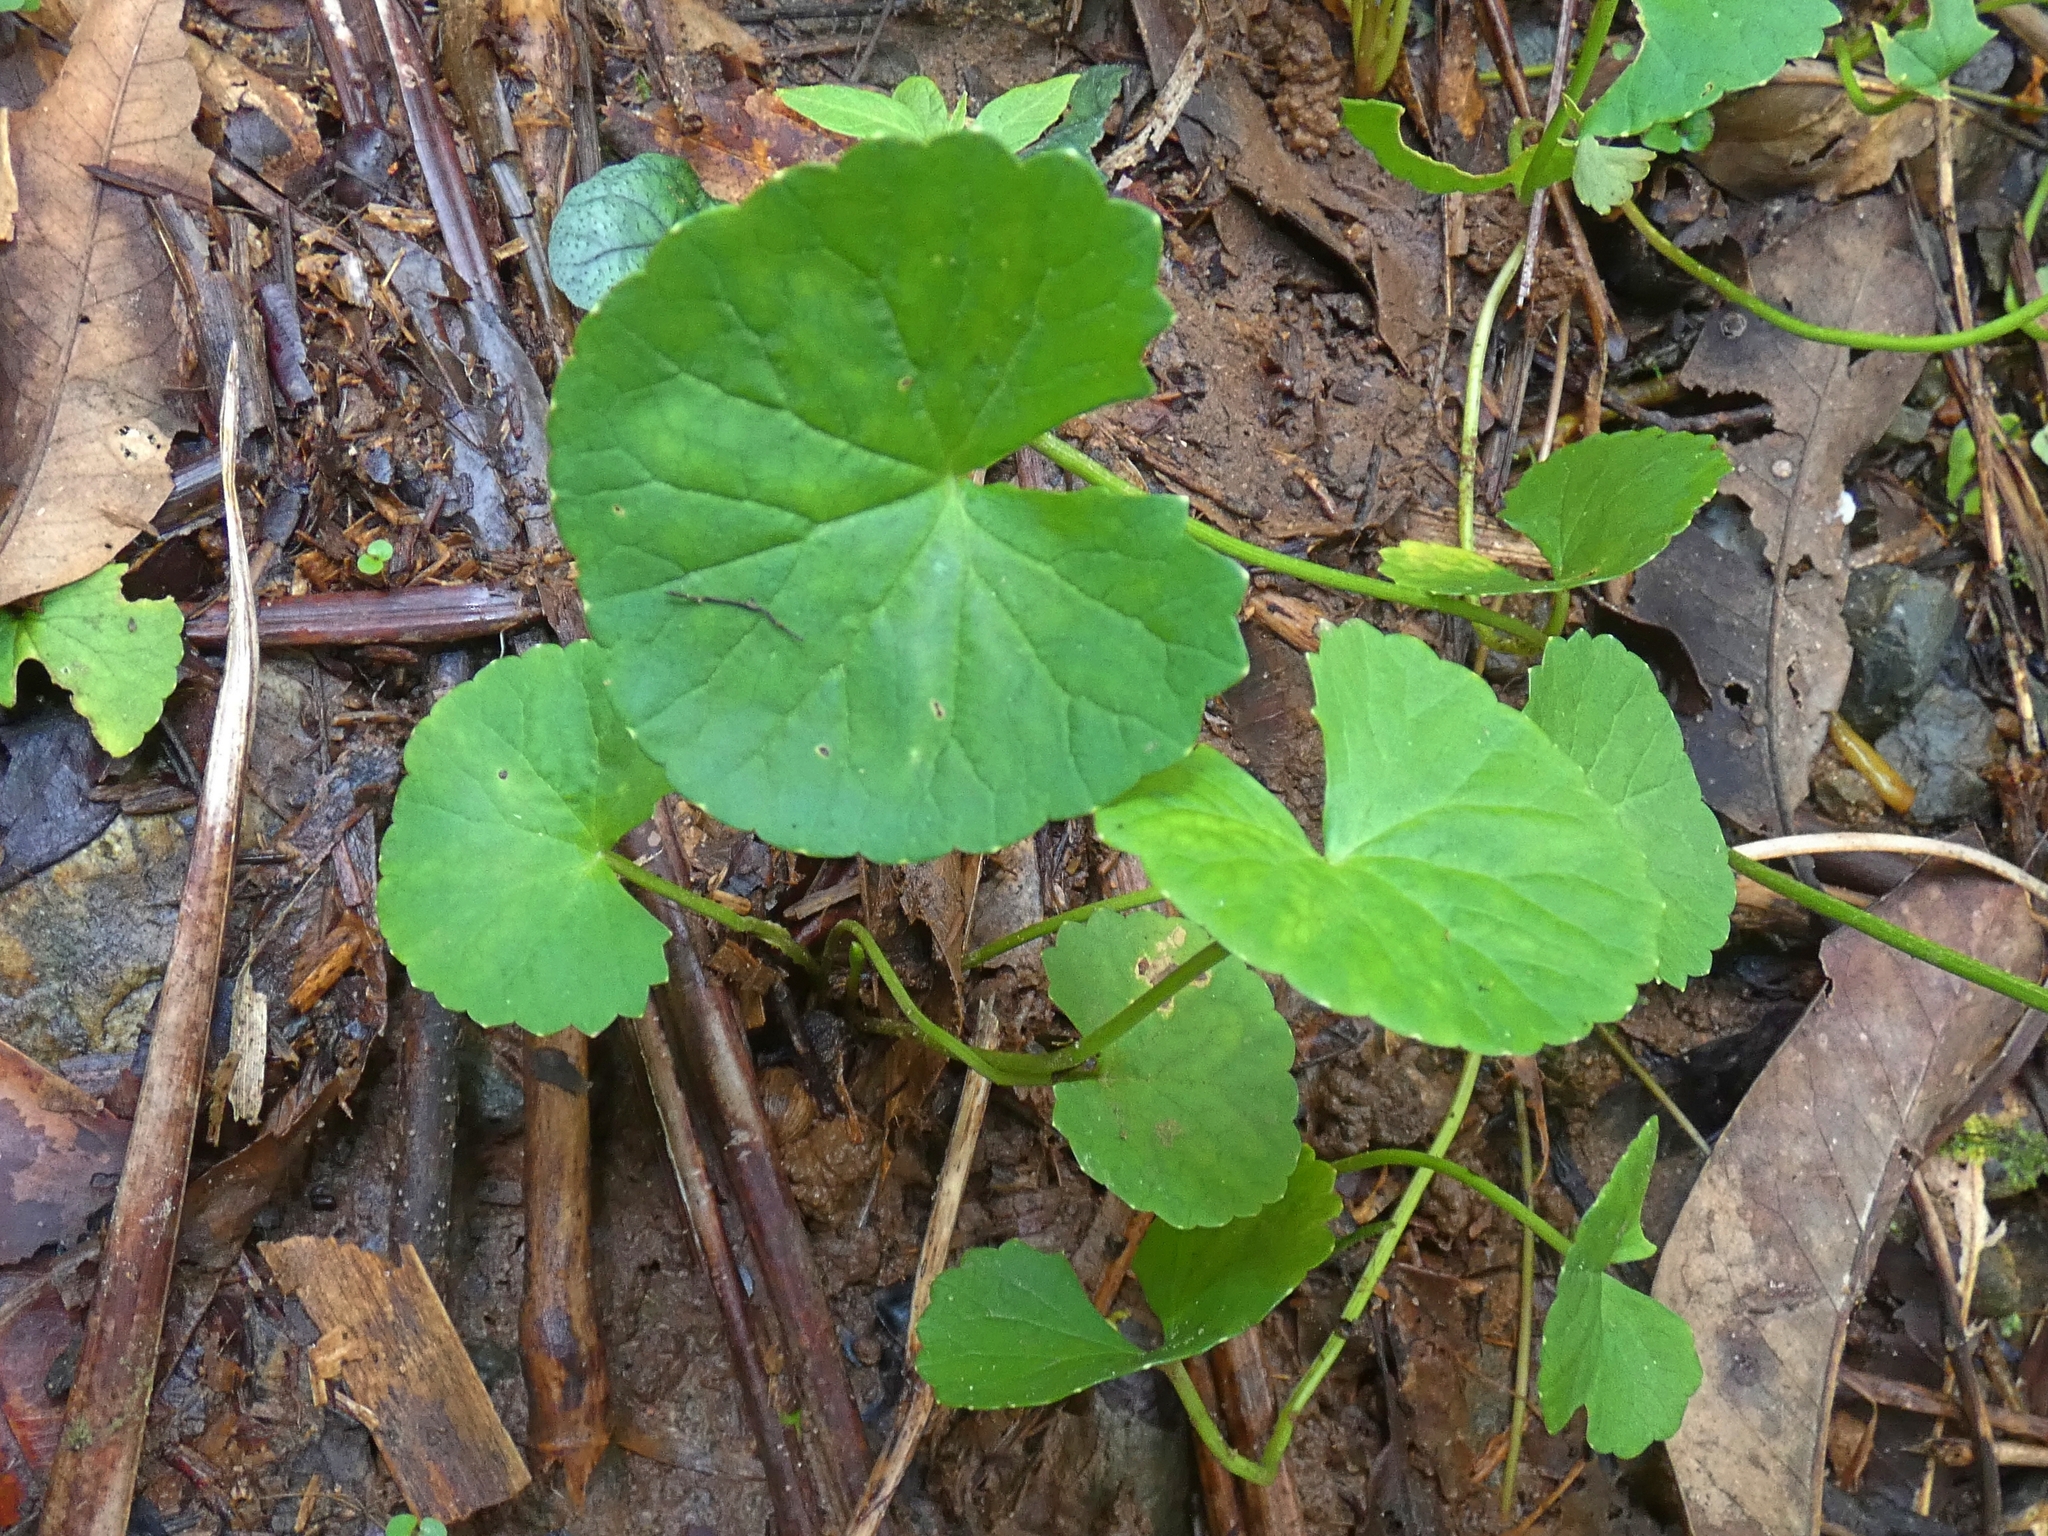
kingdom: Plantae
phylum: Tracheophyta
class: Magnoliopsida
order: Apiales
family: Apiaceae
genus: Centella
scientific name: Centella asiatica
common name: Spadeleaf
